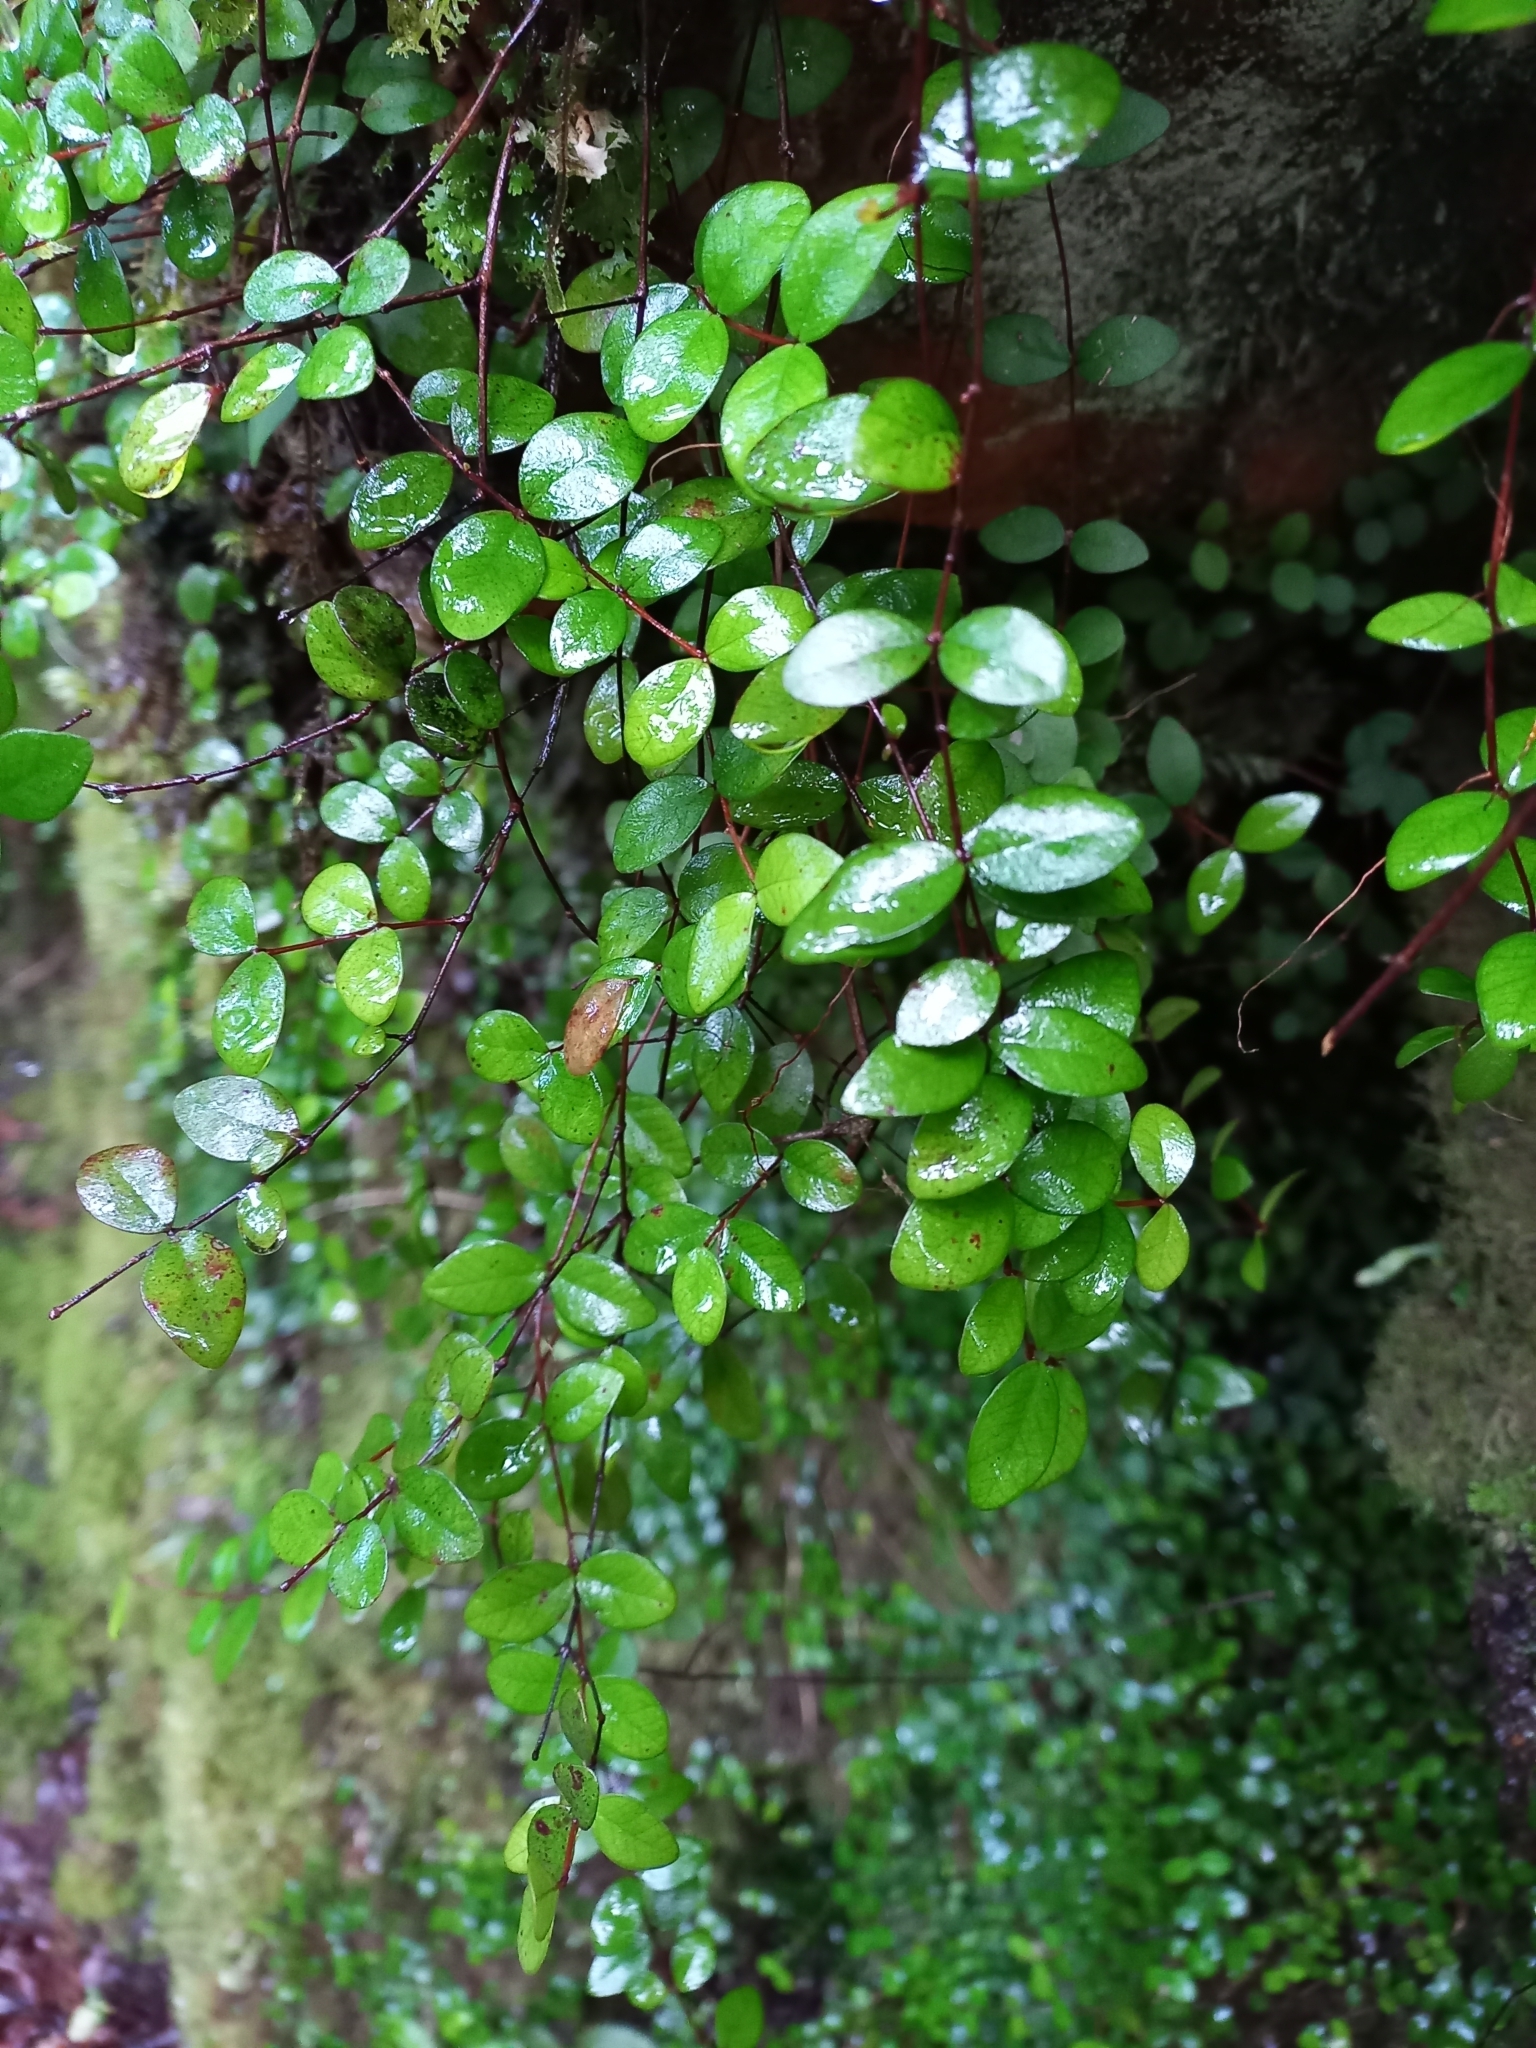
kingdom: Plantae
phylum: Tracheophyta
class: Magnoliopsida
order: Myrtales
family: Myrtaceae
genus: Metrosideros
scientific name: Metrosideros fulgens
